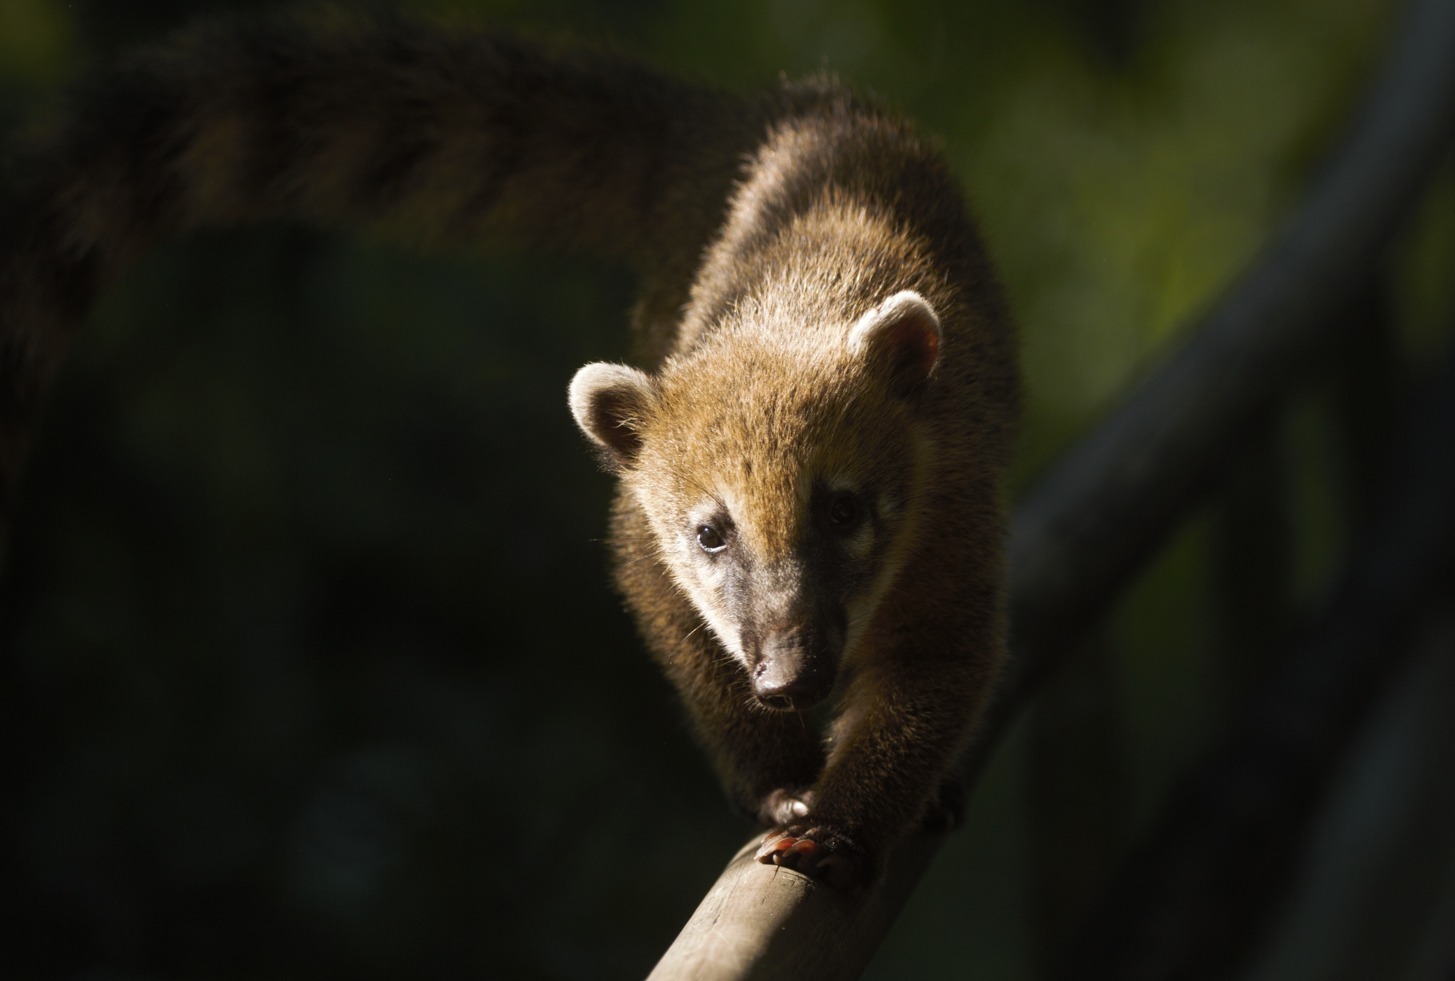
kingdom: Animalia
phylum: Chordata
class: Mammalia
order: Carnivora
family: Procyonidae
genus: Nasua
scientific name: Nasua nasua
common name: South american coati
